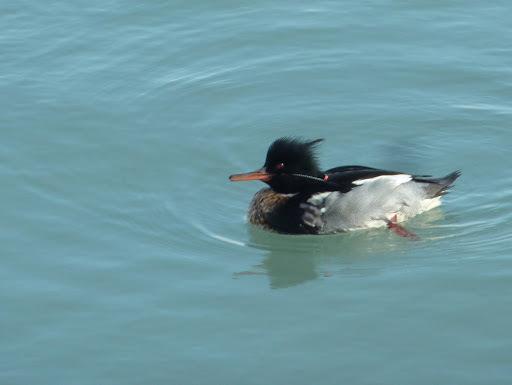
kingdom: Animalia
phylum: Chordata
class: Aves
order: Anseriformes
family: Anatidae
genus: Mergus
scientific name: Mergus serrator
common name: Red-breasted merganser
